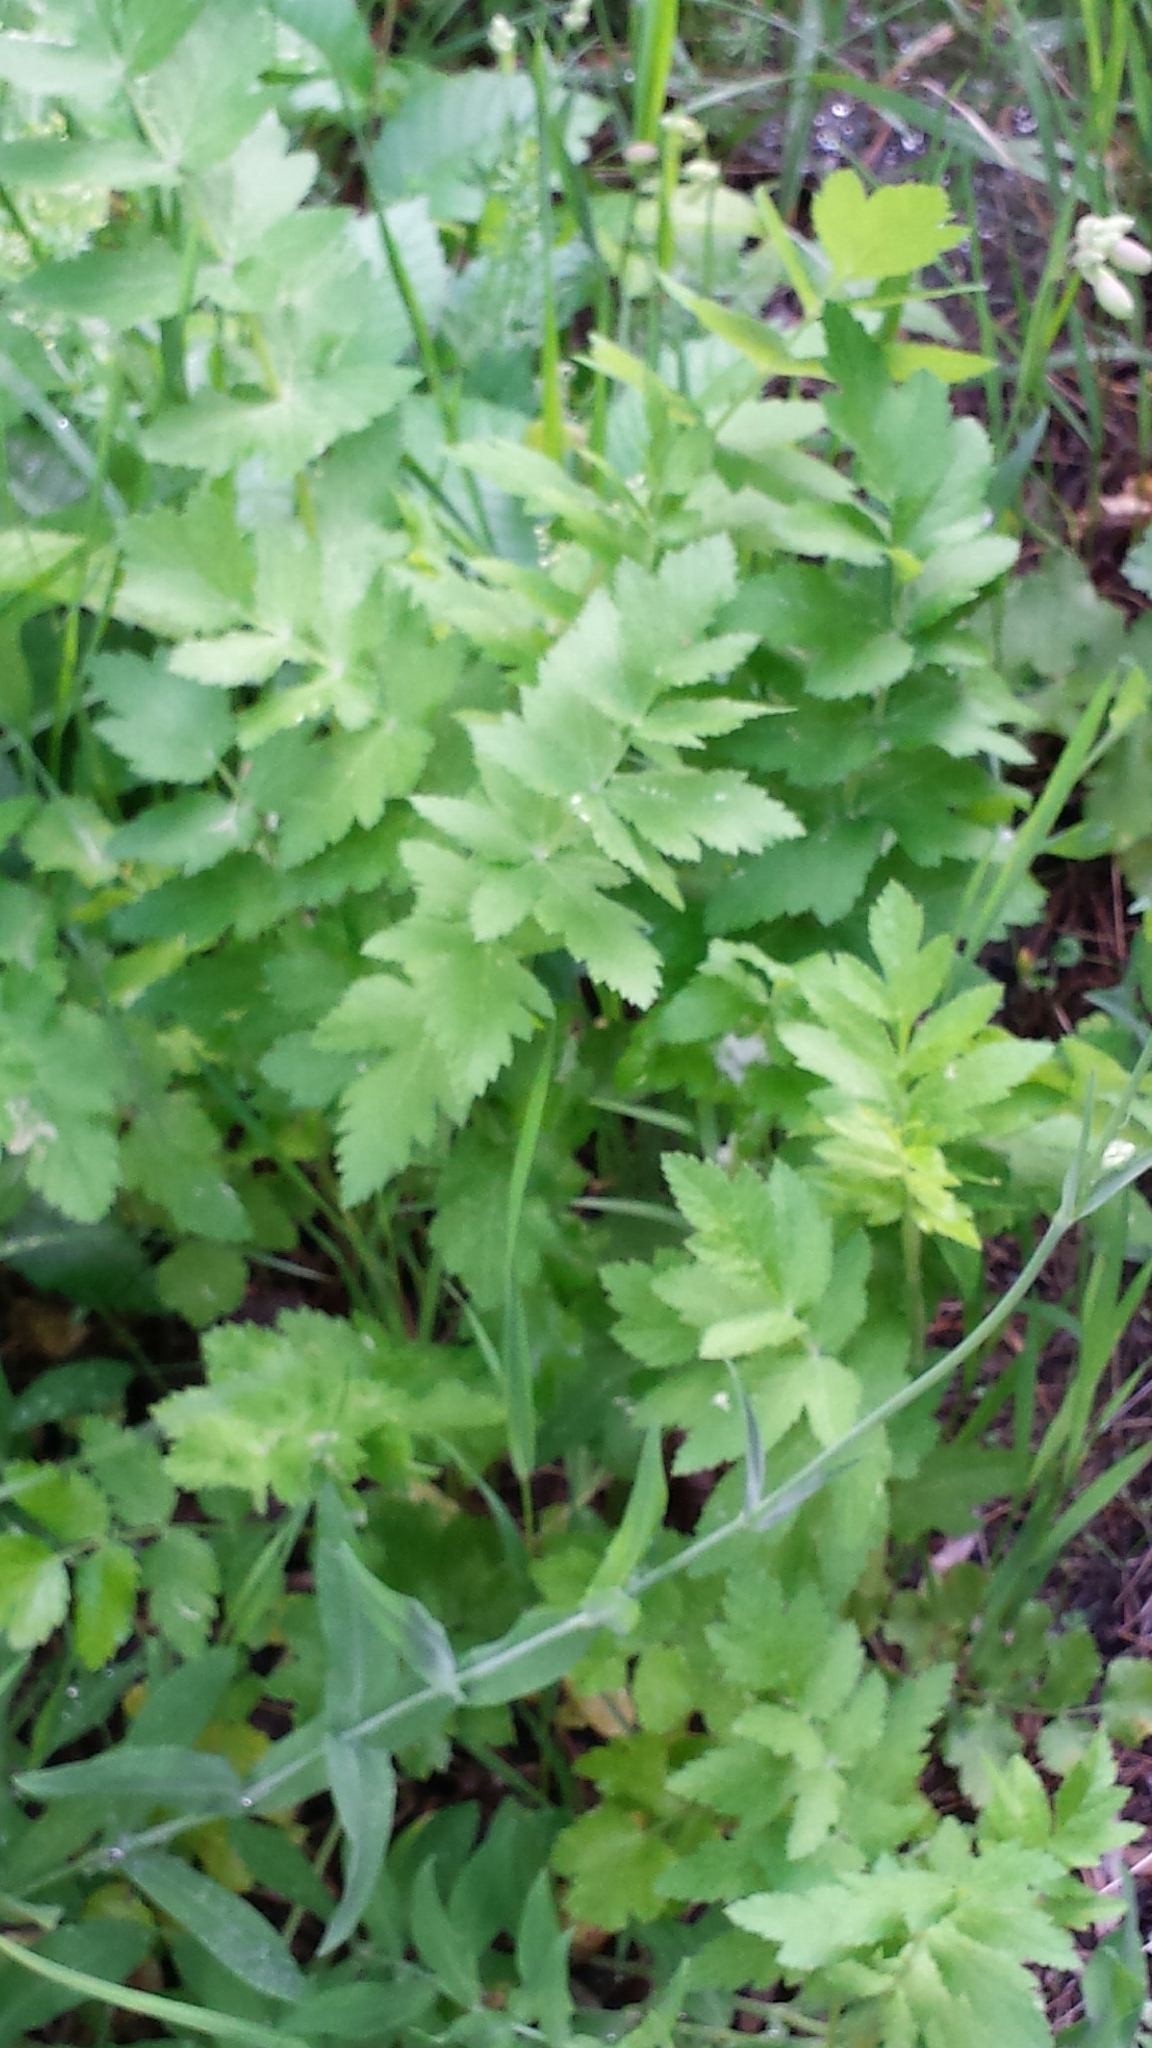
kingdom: Plantae
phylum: Tracheophyta
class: Magnoliopsida
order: Apiales
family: Apiaceae
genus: Pastinaca
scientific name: Pastinaca sativa
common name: Wild parsnip
